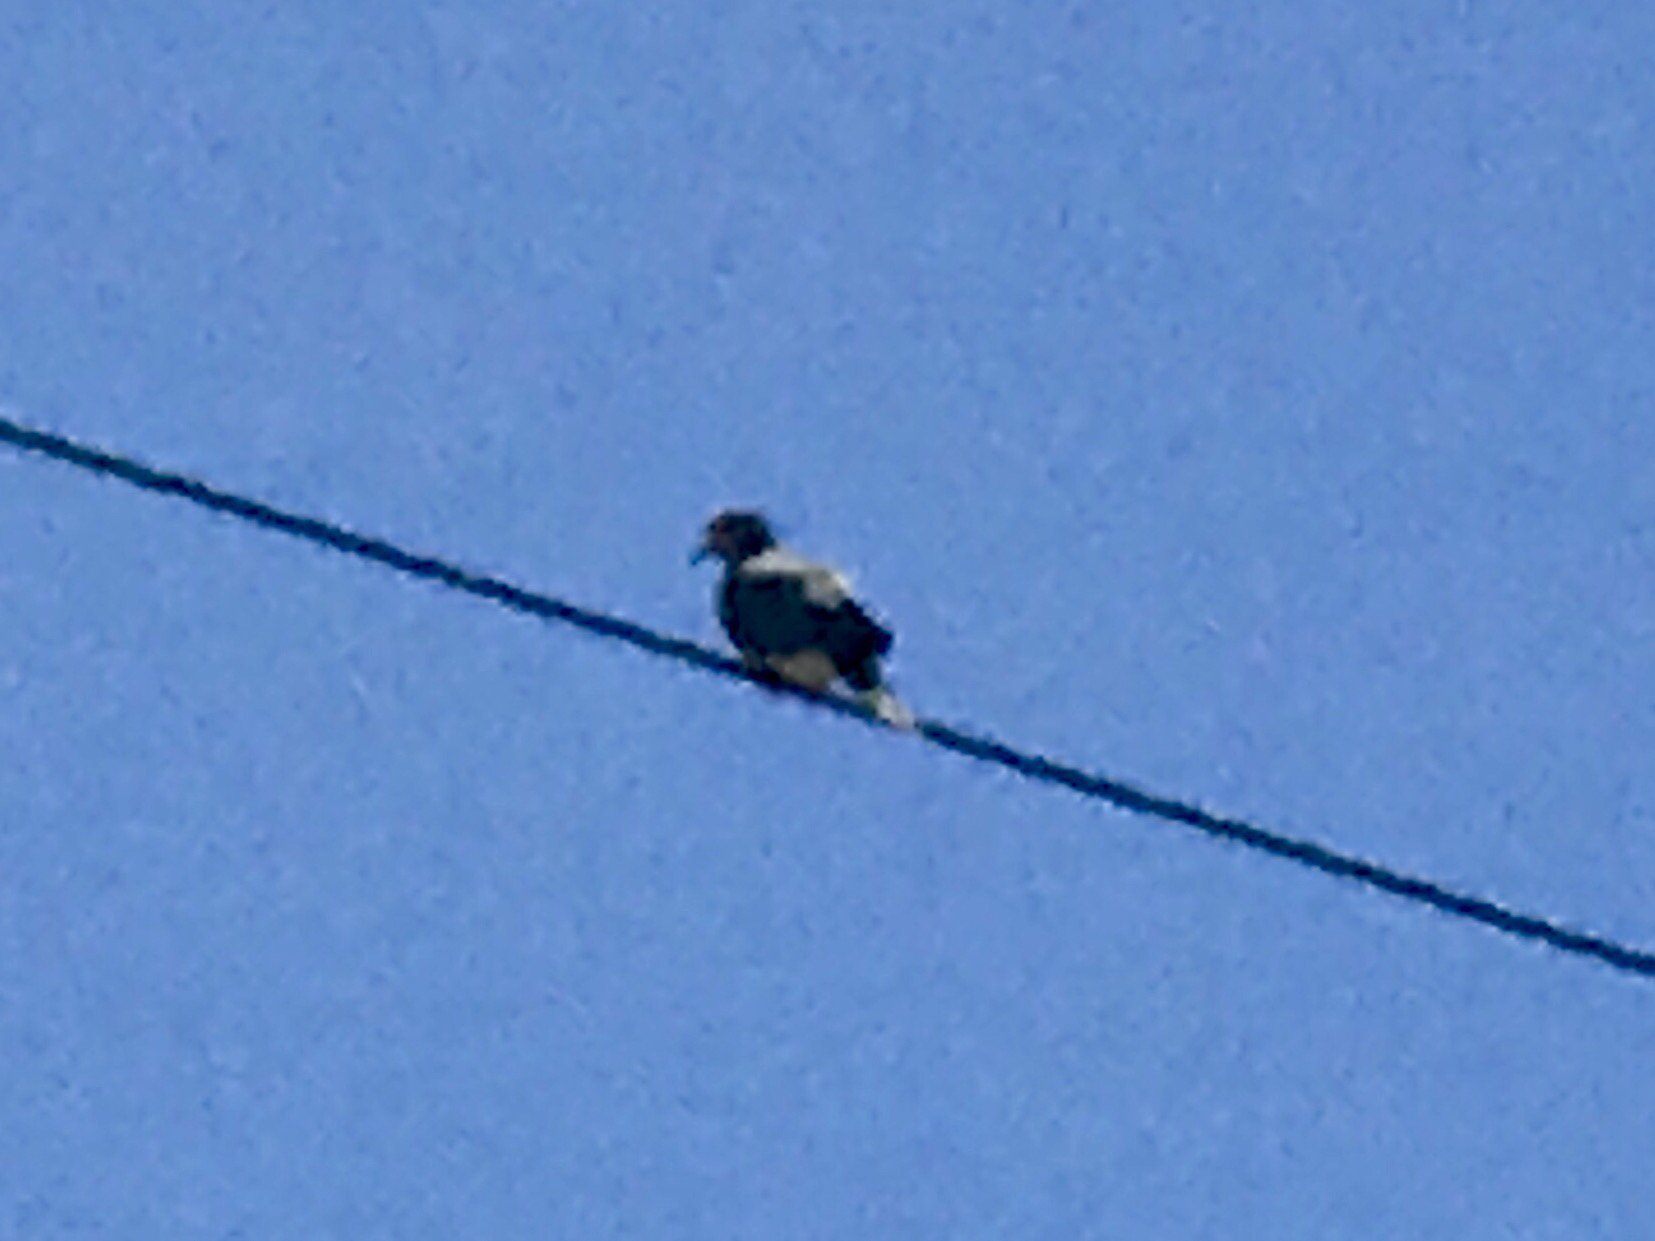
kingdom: Animalia
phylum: Chordata
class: Aves
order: Columbiformes
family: Columbidae
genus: Zenaida
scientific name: Zenaida macroura
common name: Mourning dove
